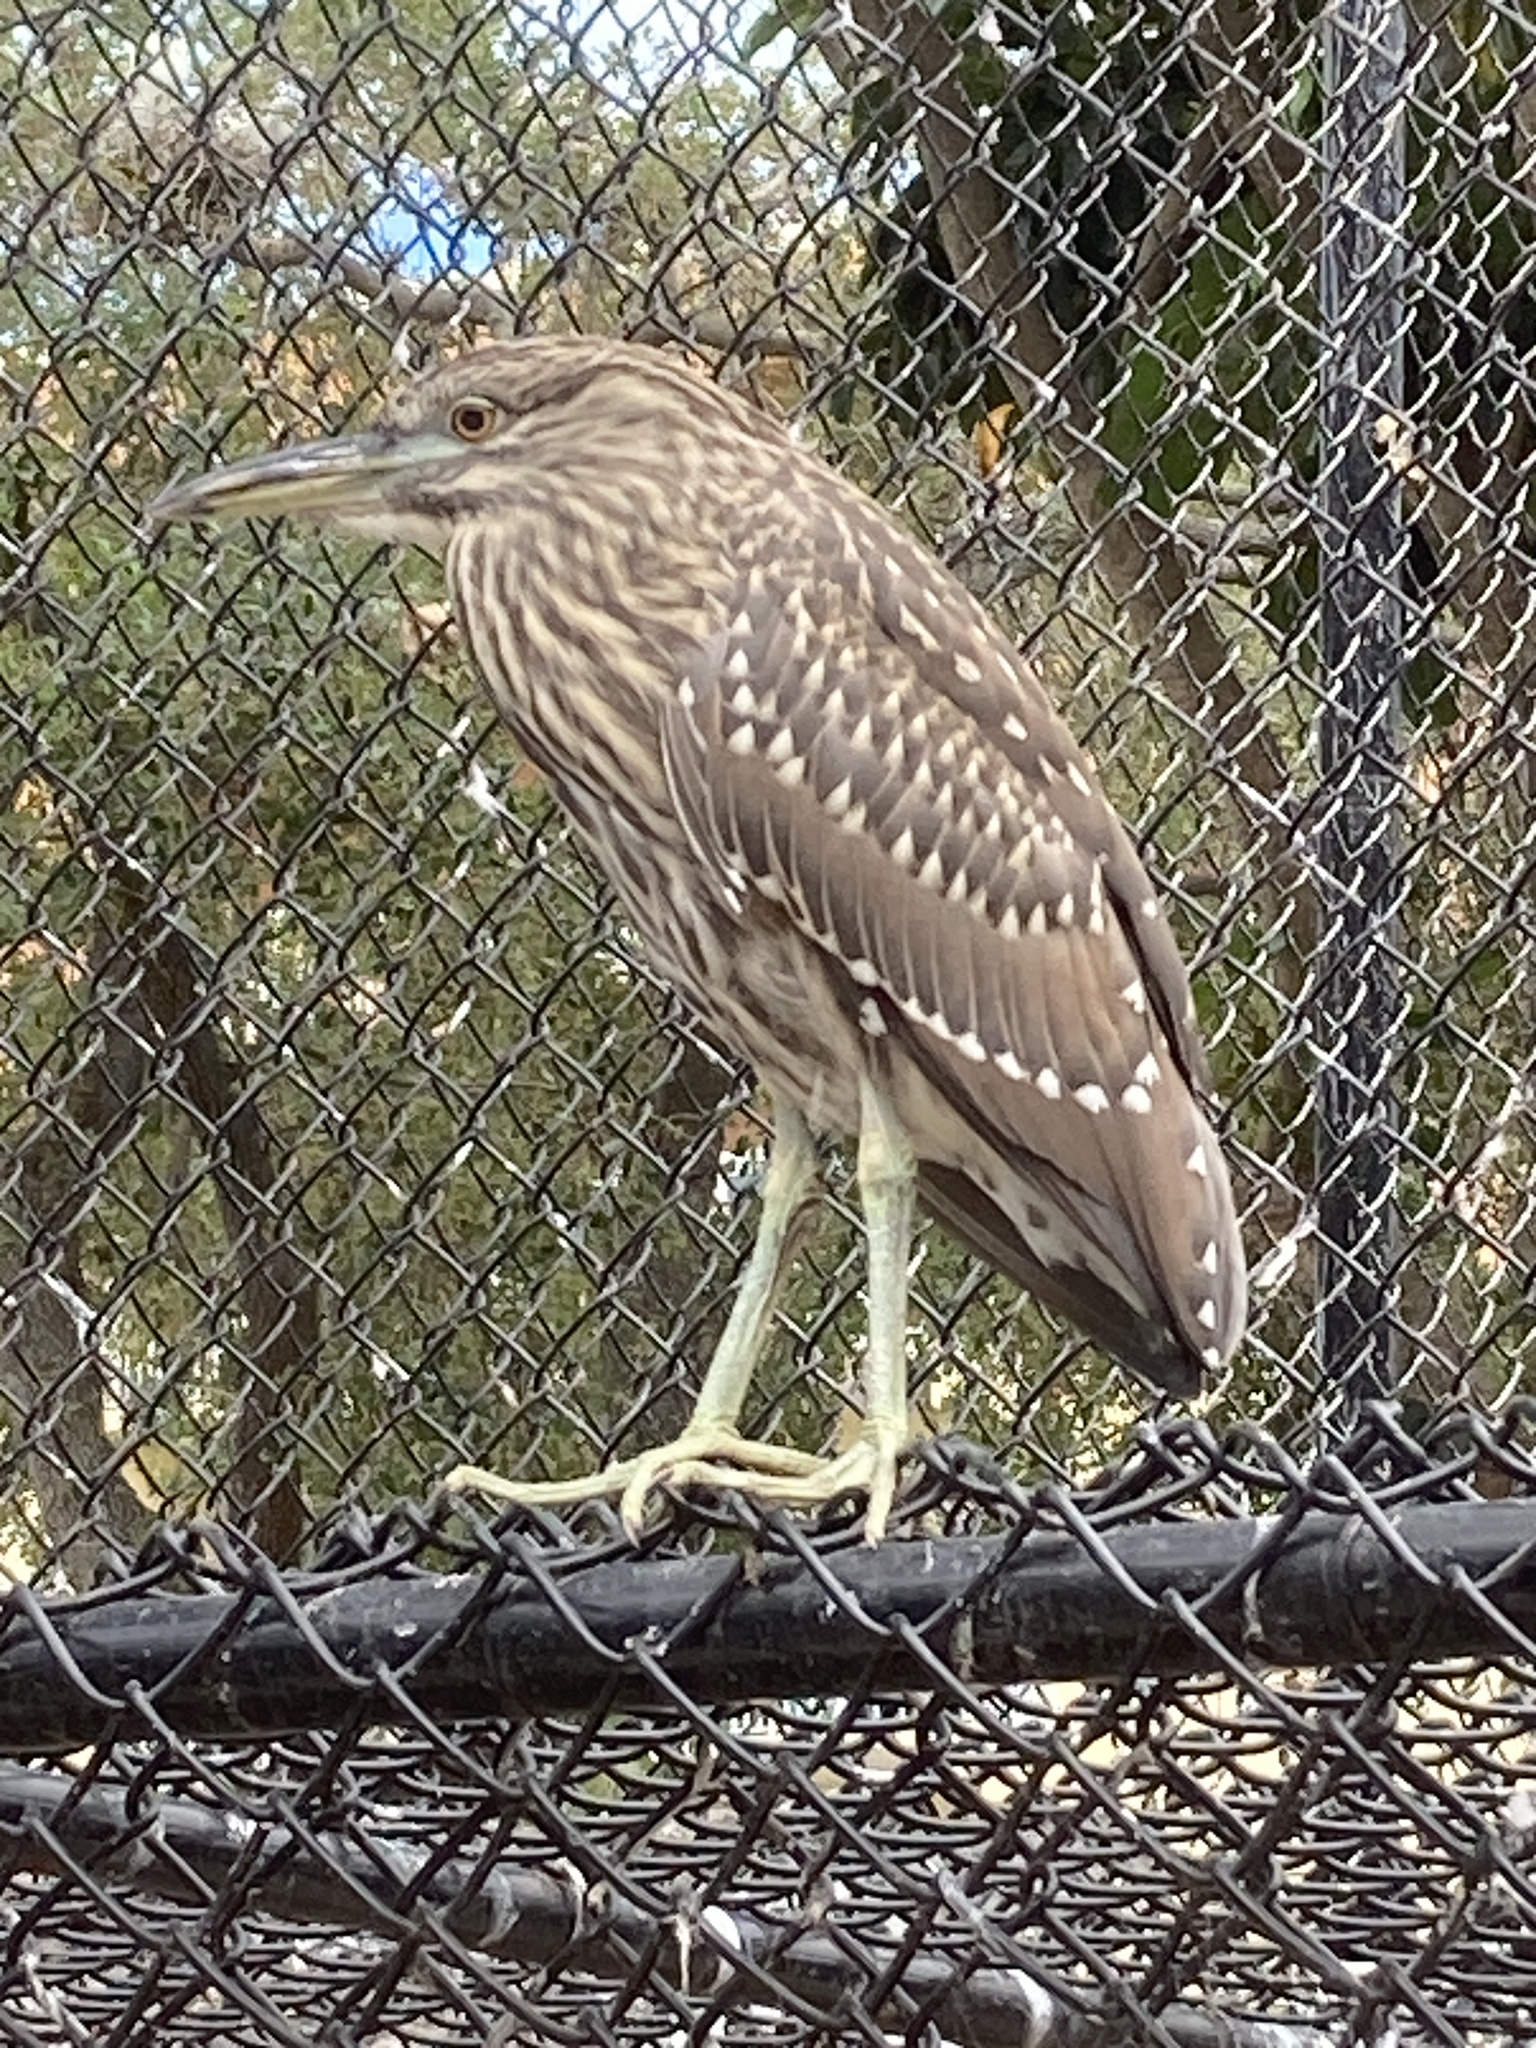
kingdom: Animalia
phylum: Chordata
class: Aves
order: Pelecaniformes
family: Ardeidae
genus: Nycticorax
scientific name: Nycticorax nycticorax
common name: Black-crowned night heron
